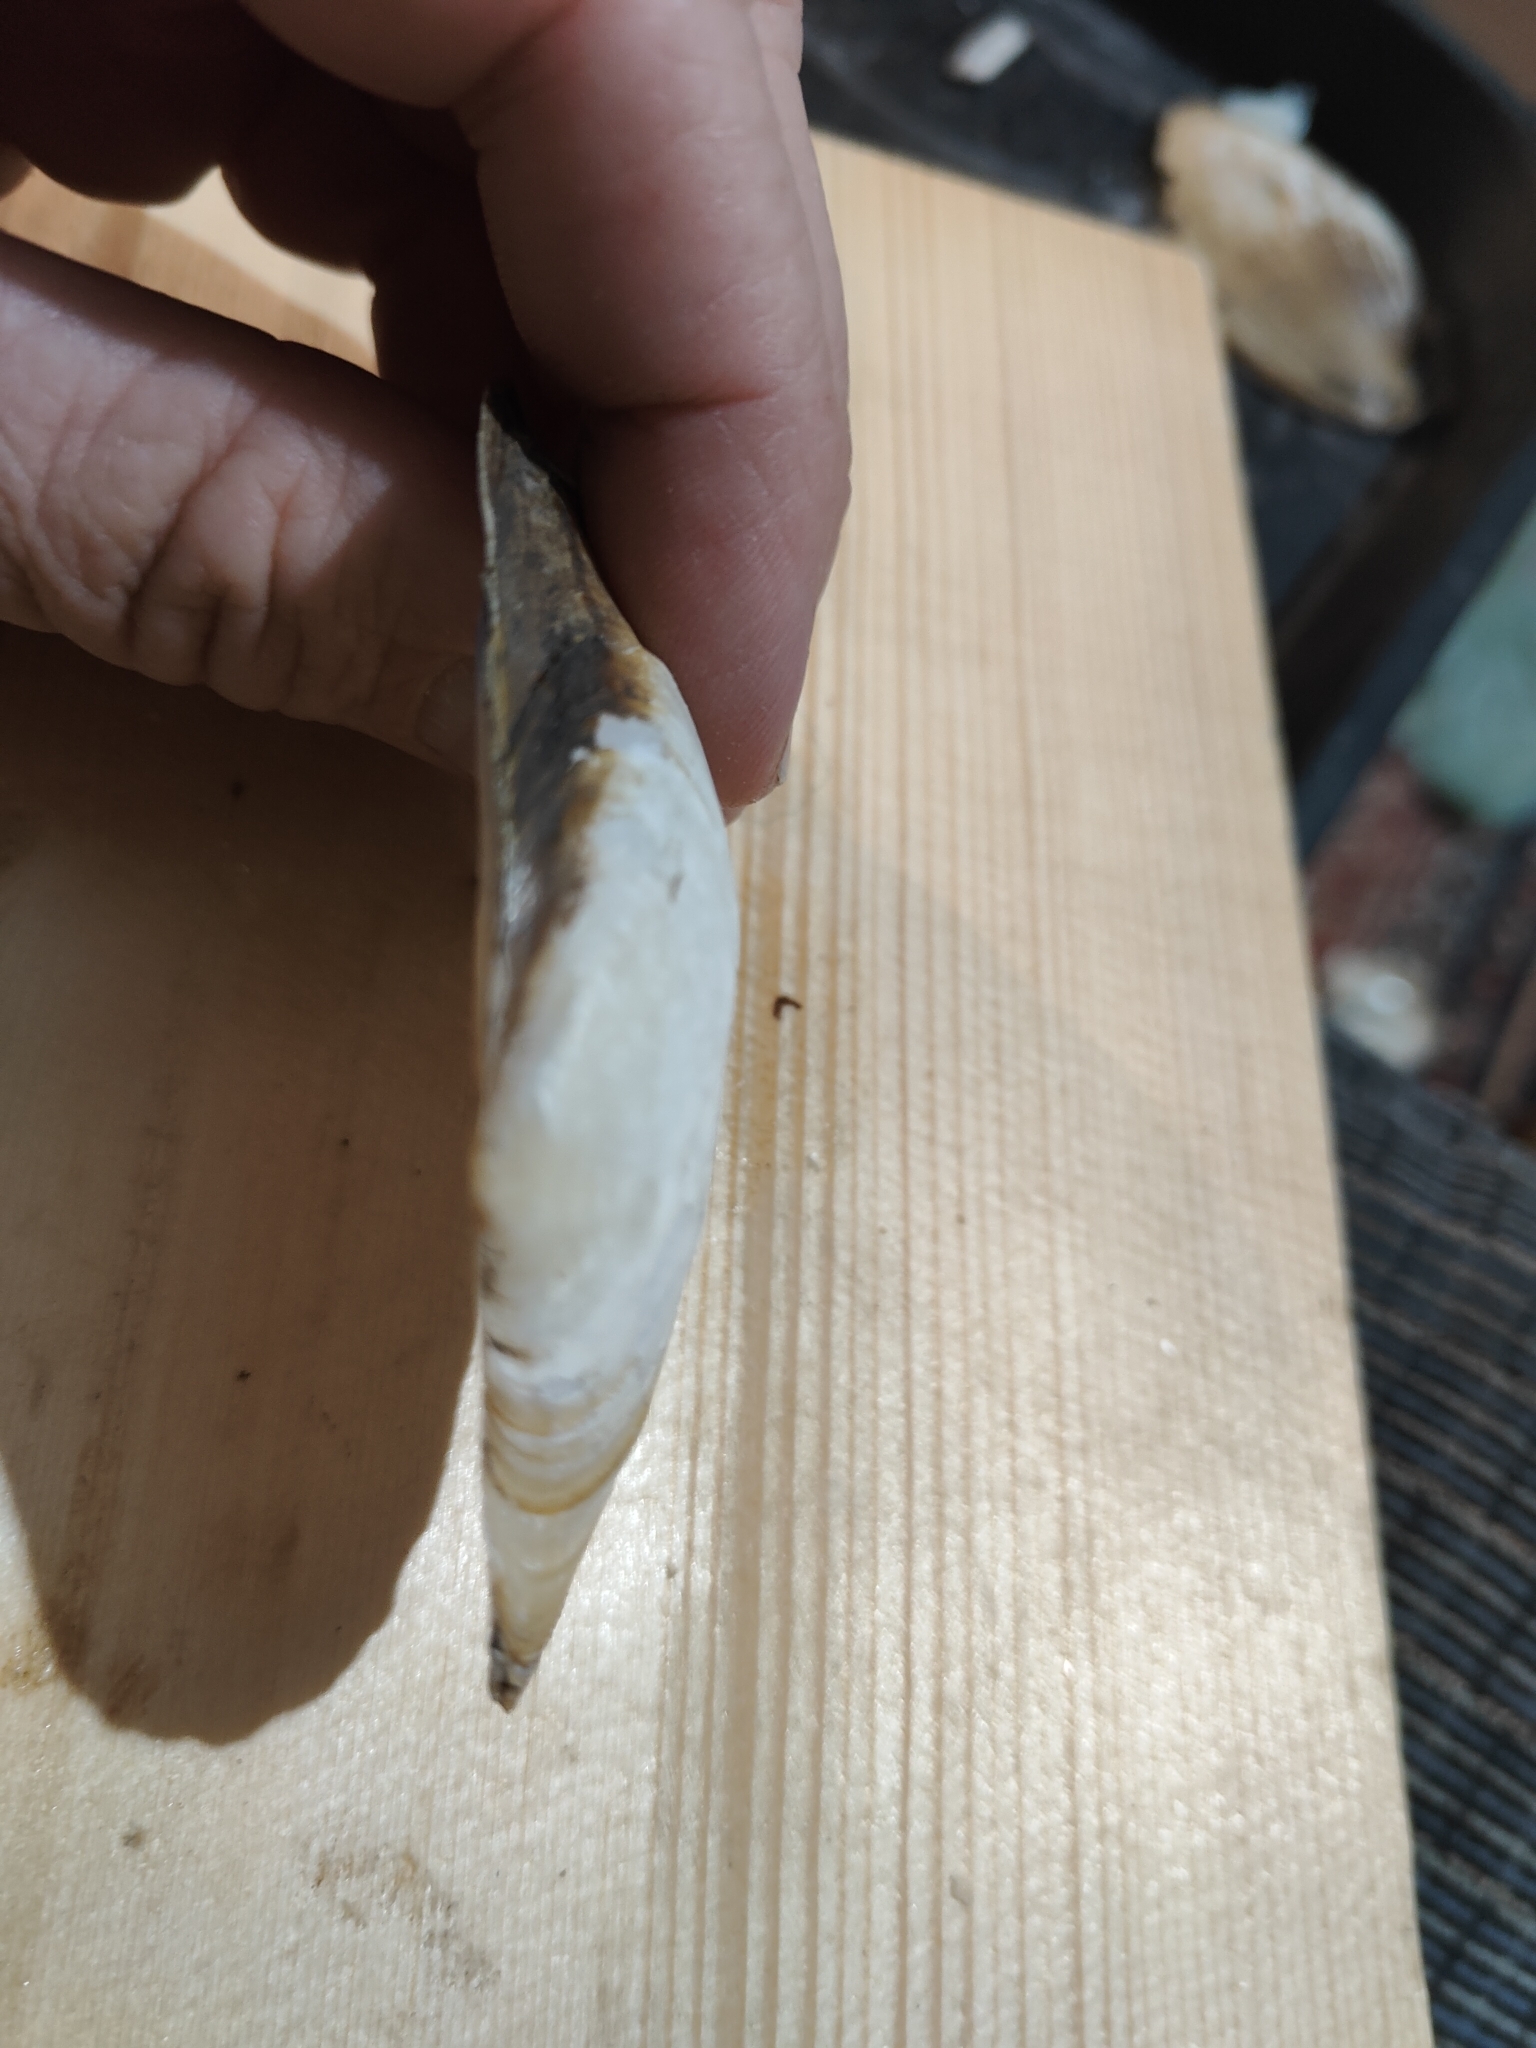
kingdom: Animalia
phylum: Mollusca
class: Bivalvia
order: Unionida
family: Unionidae
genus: Potamilus
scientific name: Potamilus fragilis
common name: Fragile papershell
